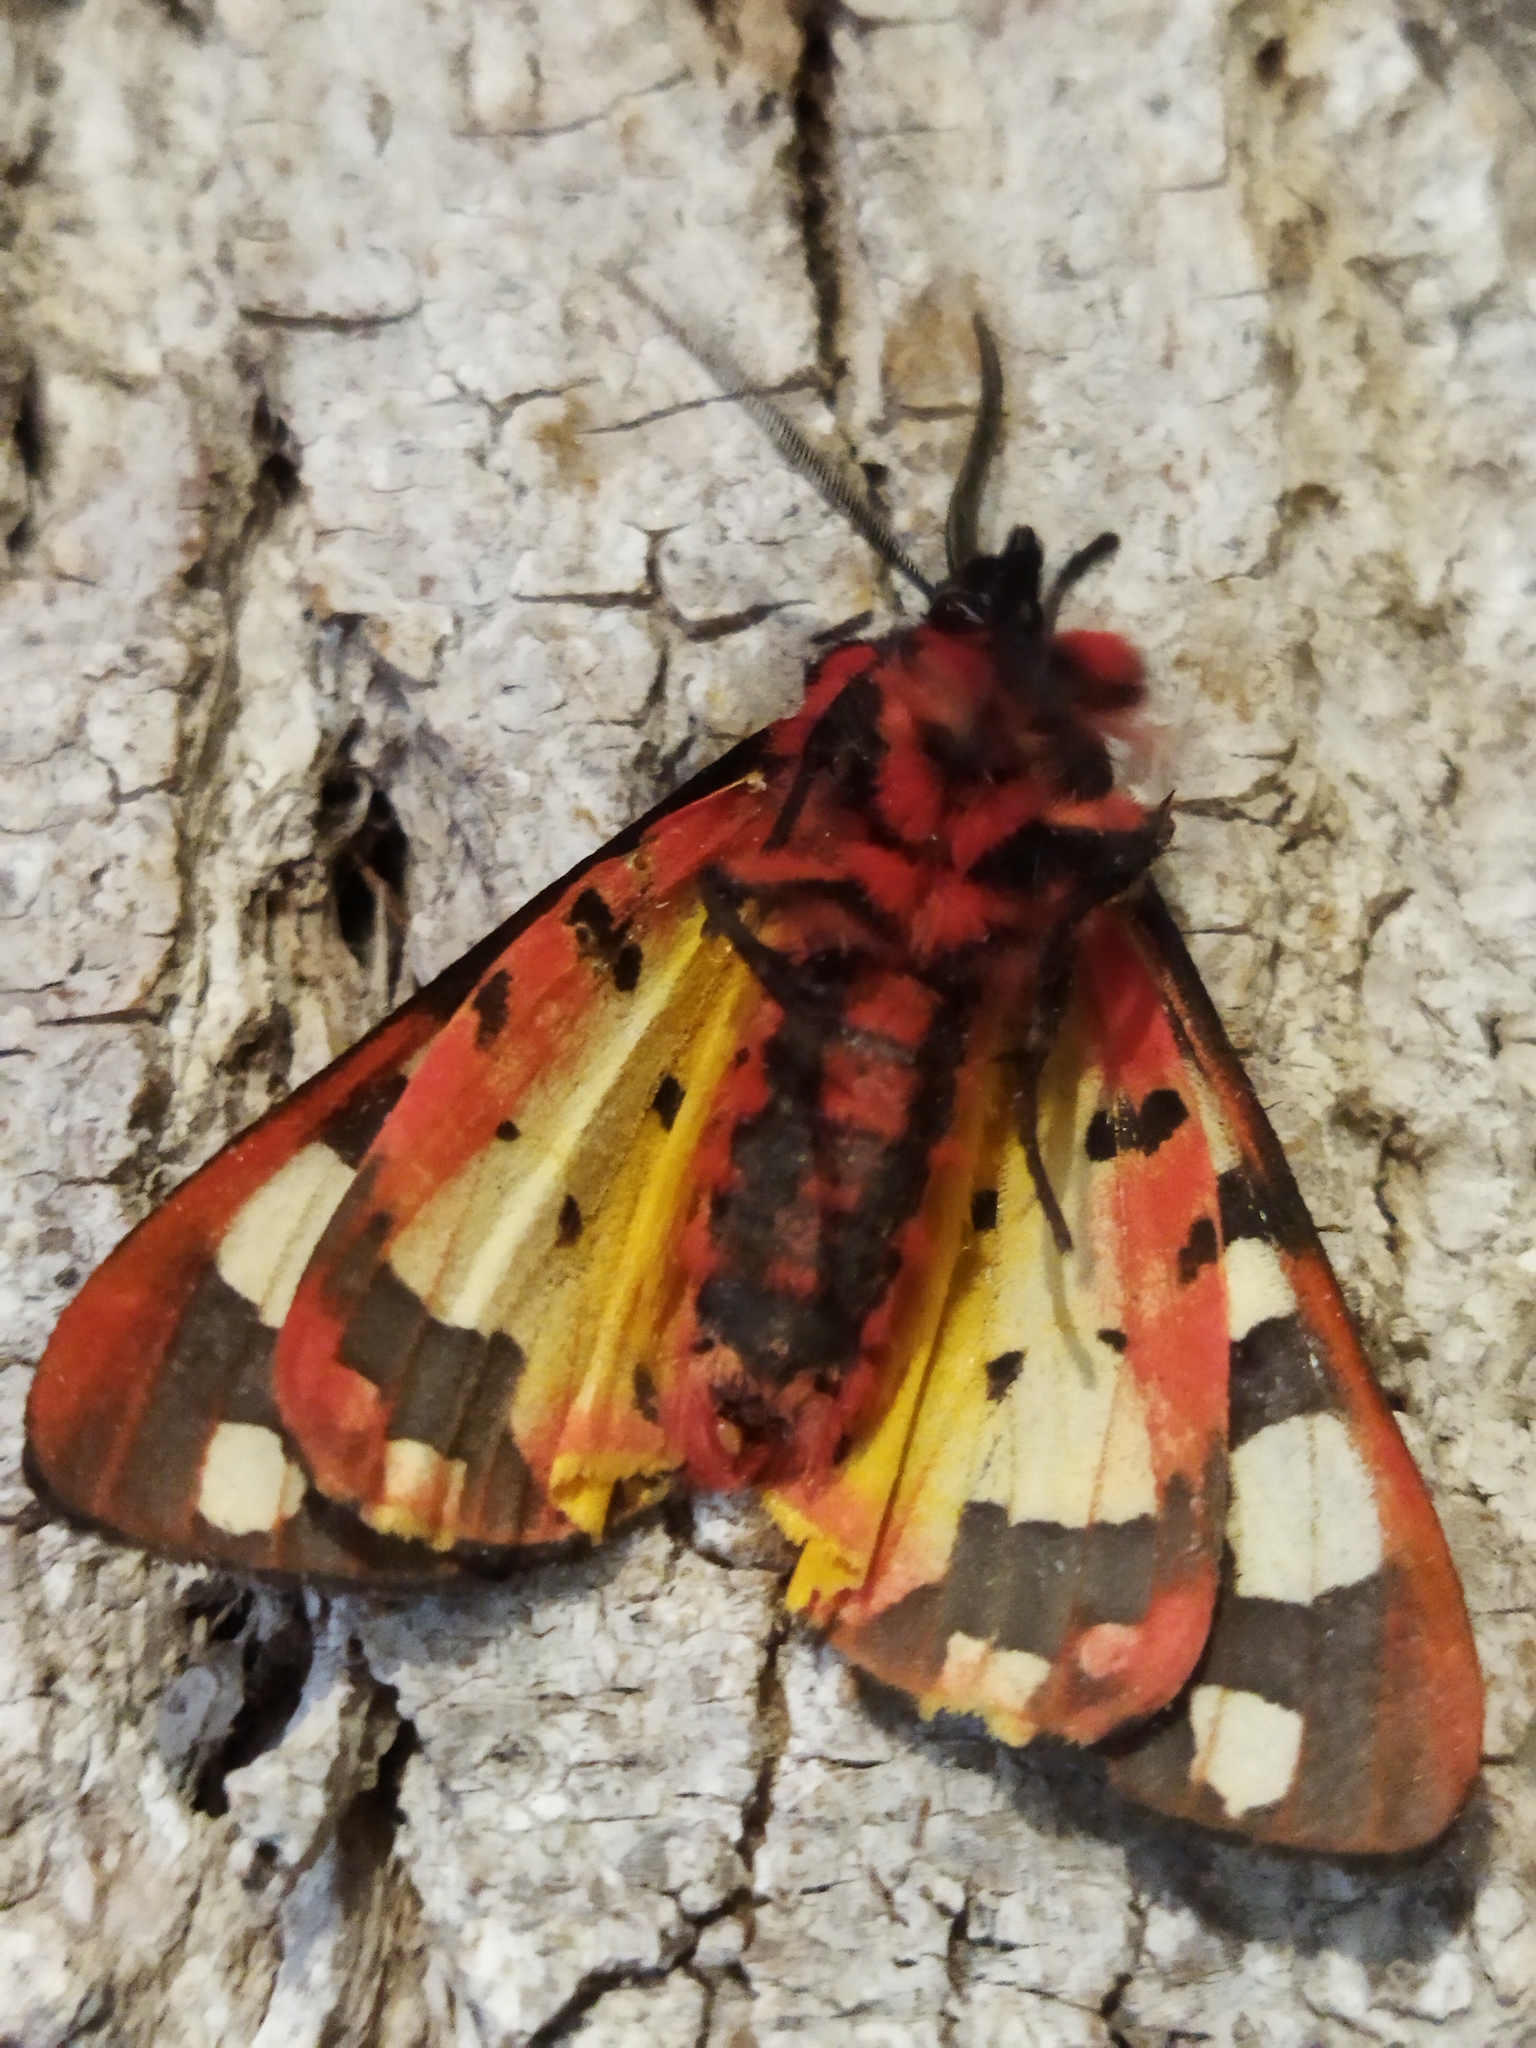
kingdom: Animalia
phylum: Arthropoda
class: Insecta
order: Lepidoptera
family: Erebidae
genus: Epicallia
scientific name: Epicallia villica
